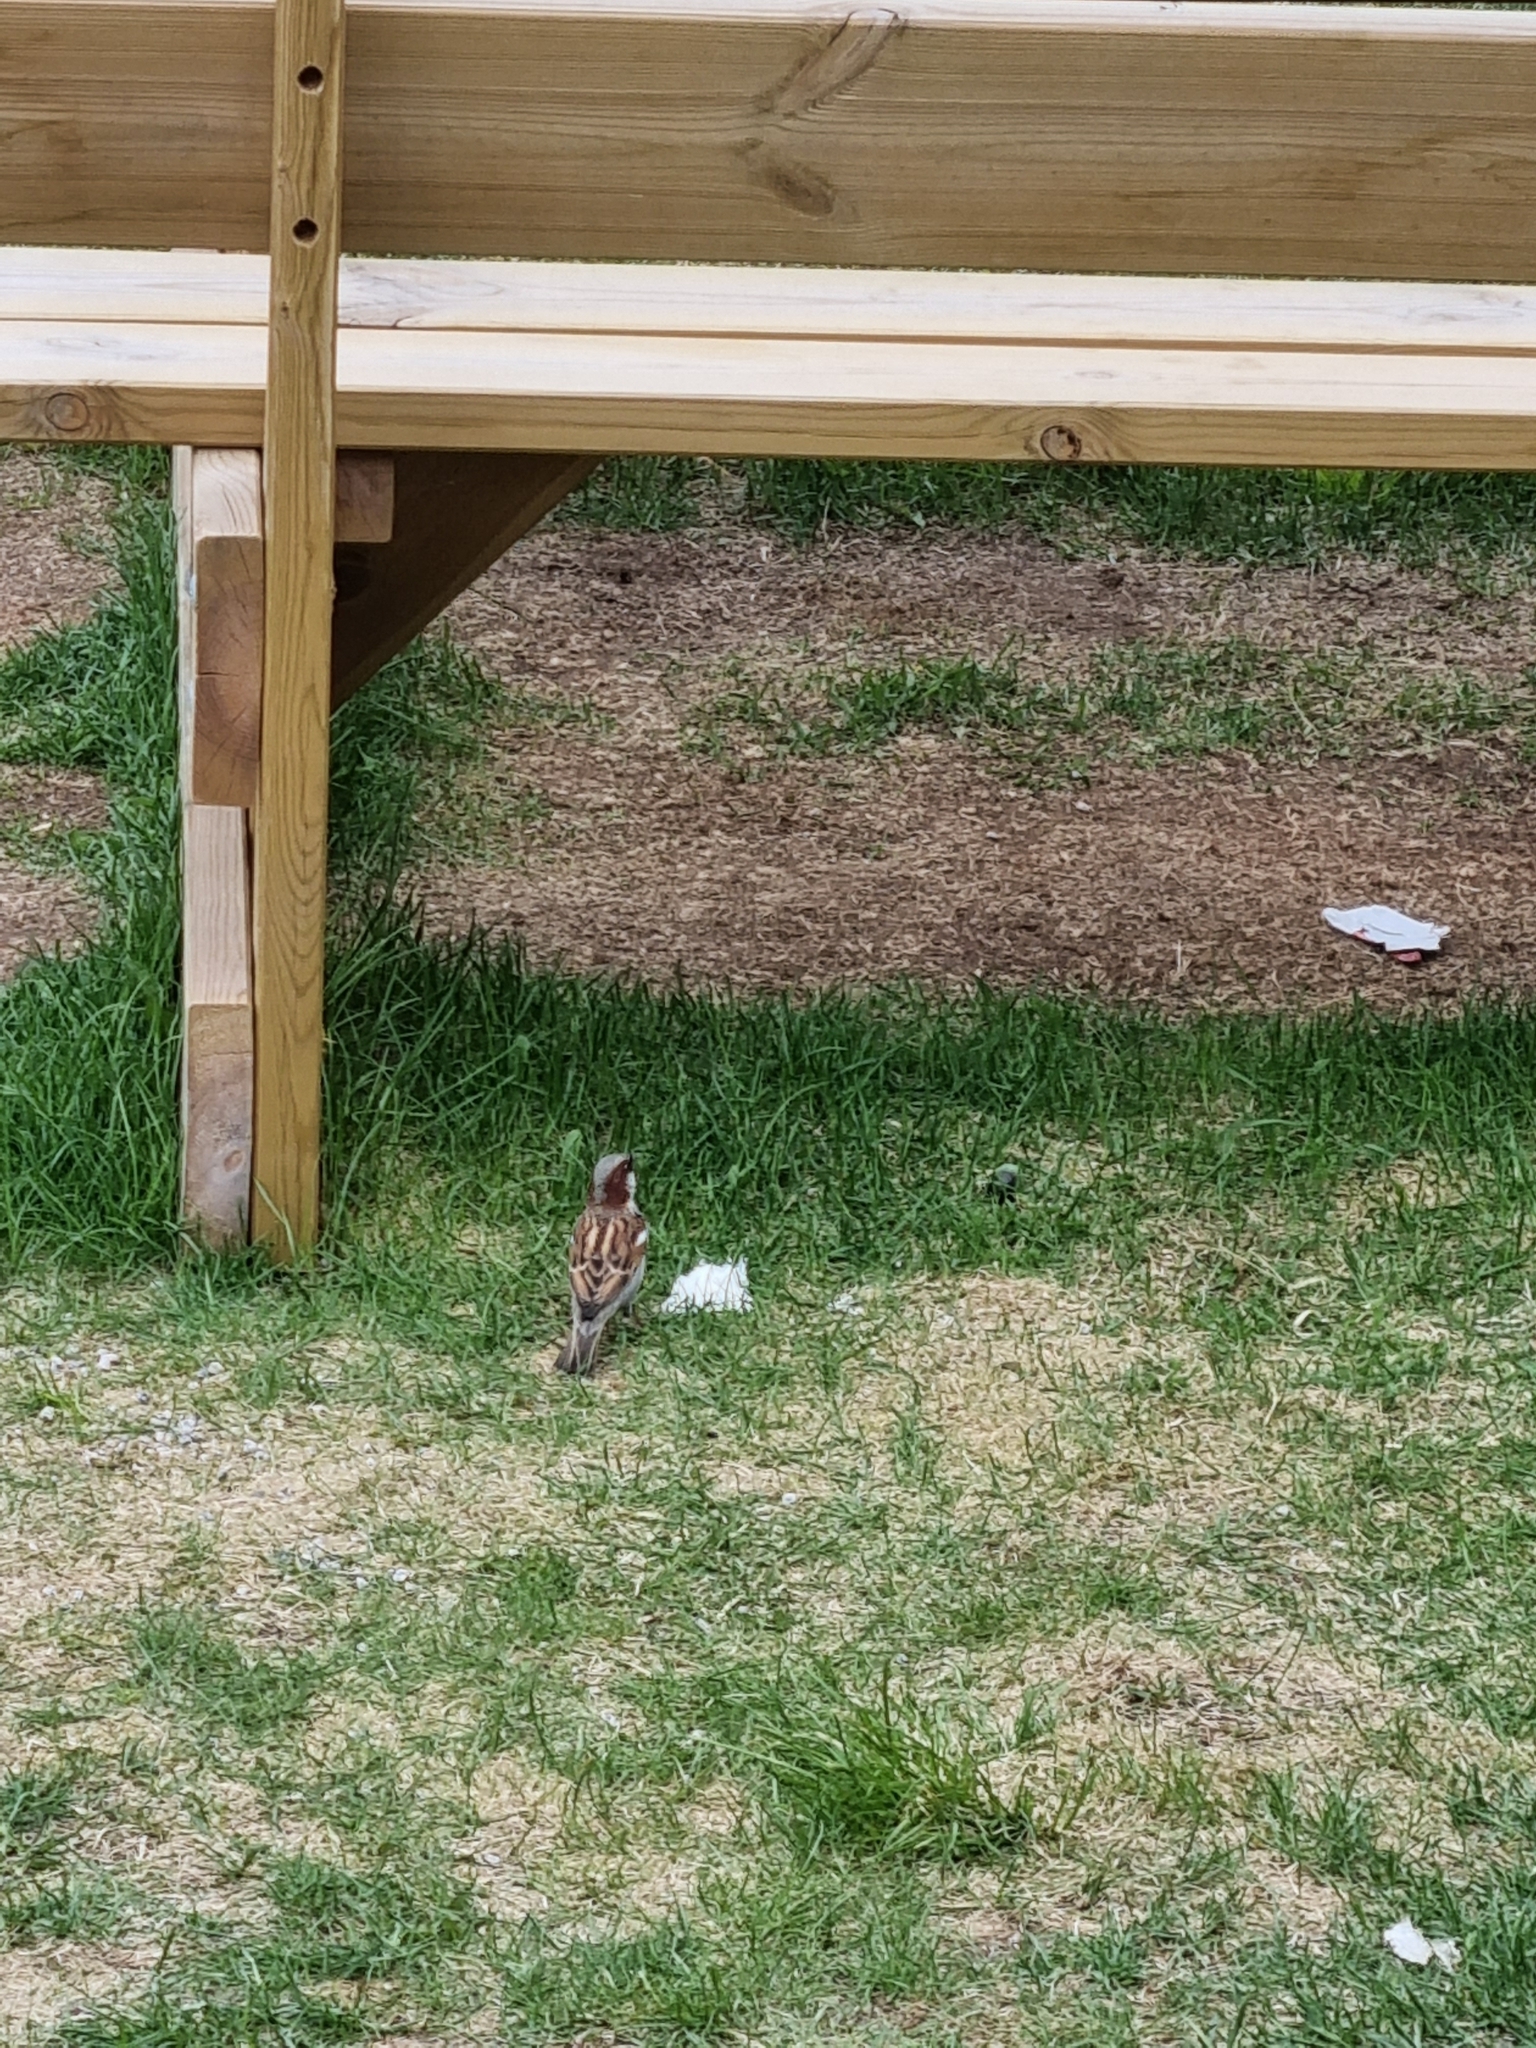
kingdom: Animalia
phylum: Chordata
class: Aves
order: Passeriformes
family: Passeridae
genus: Passer
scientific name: Passer domesticus
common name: House sparrow
